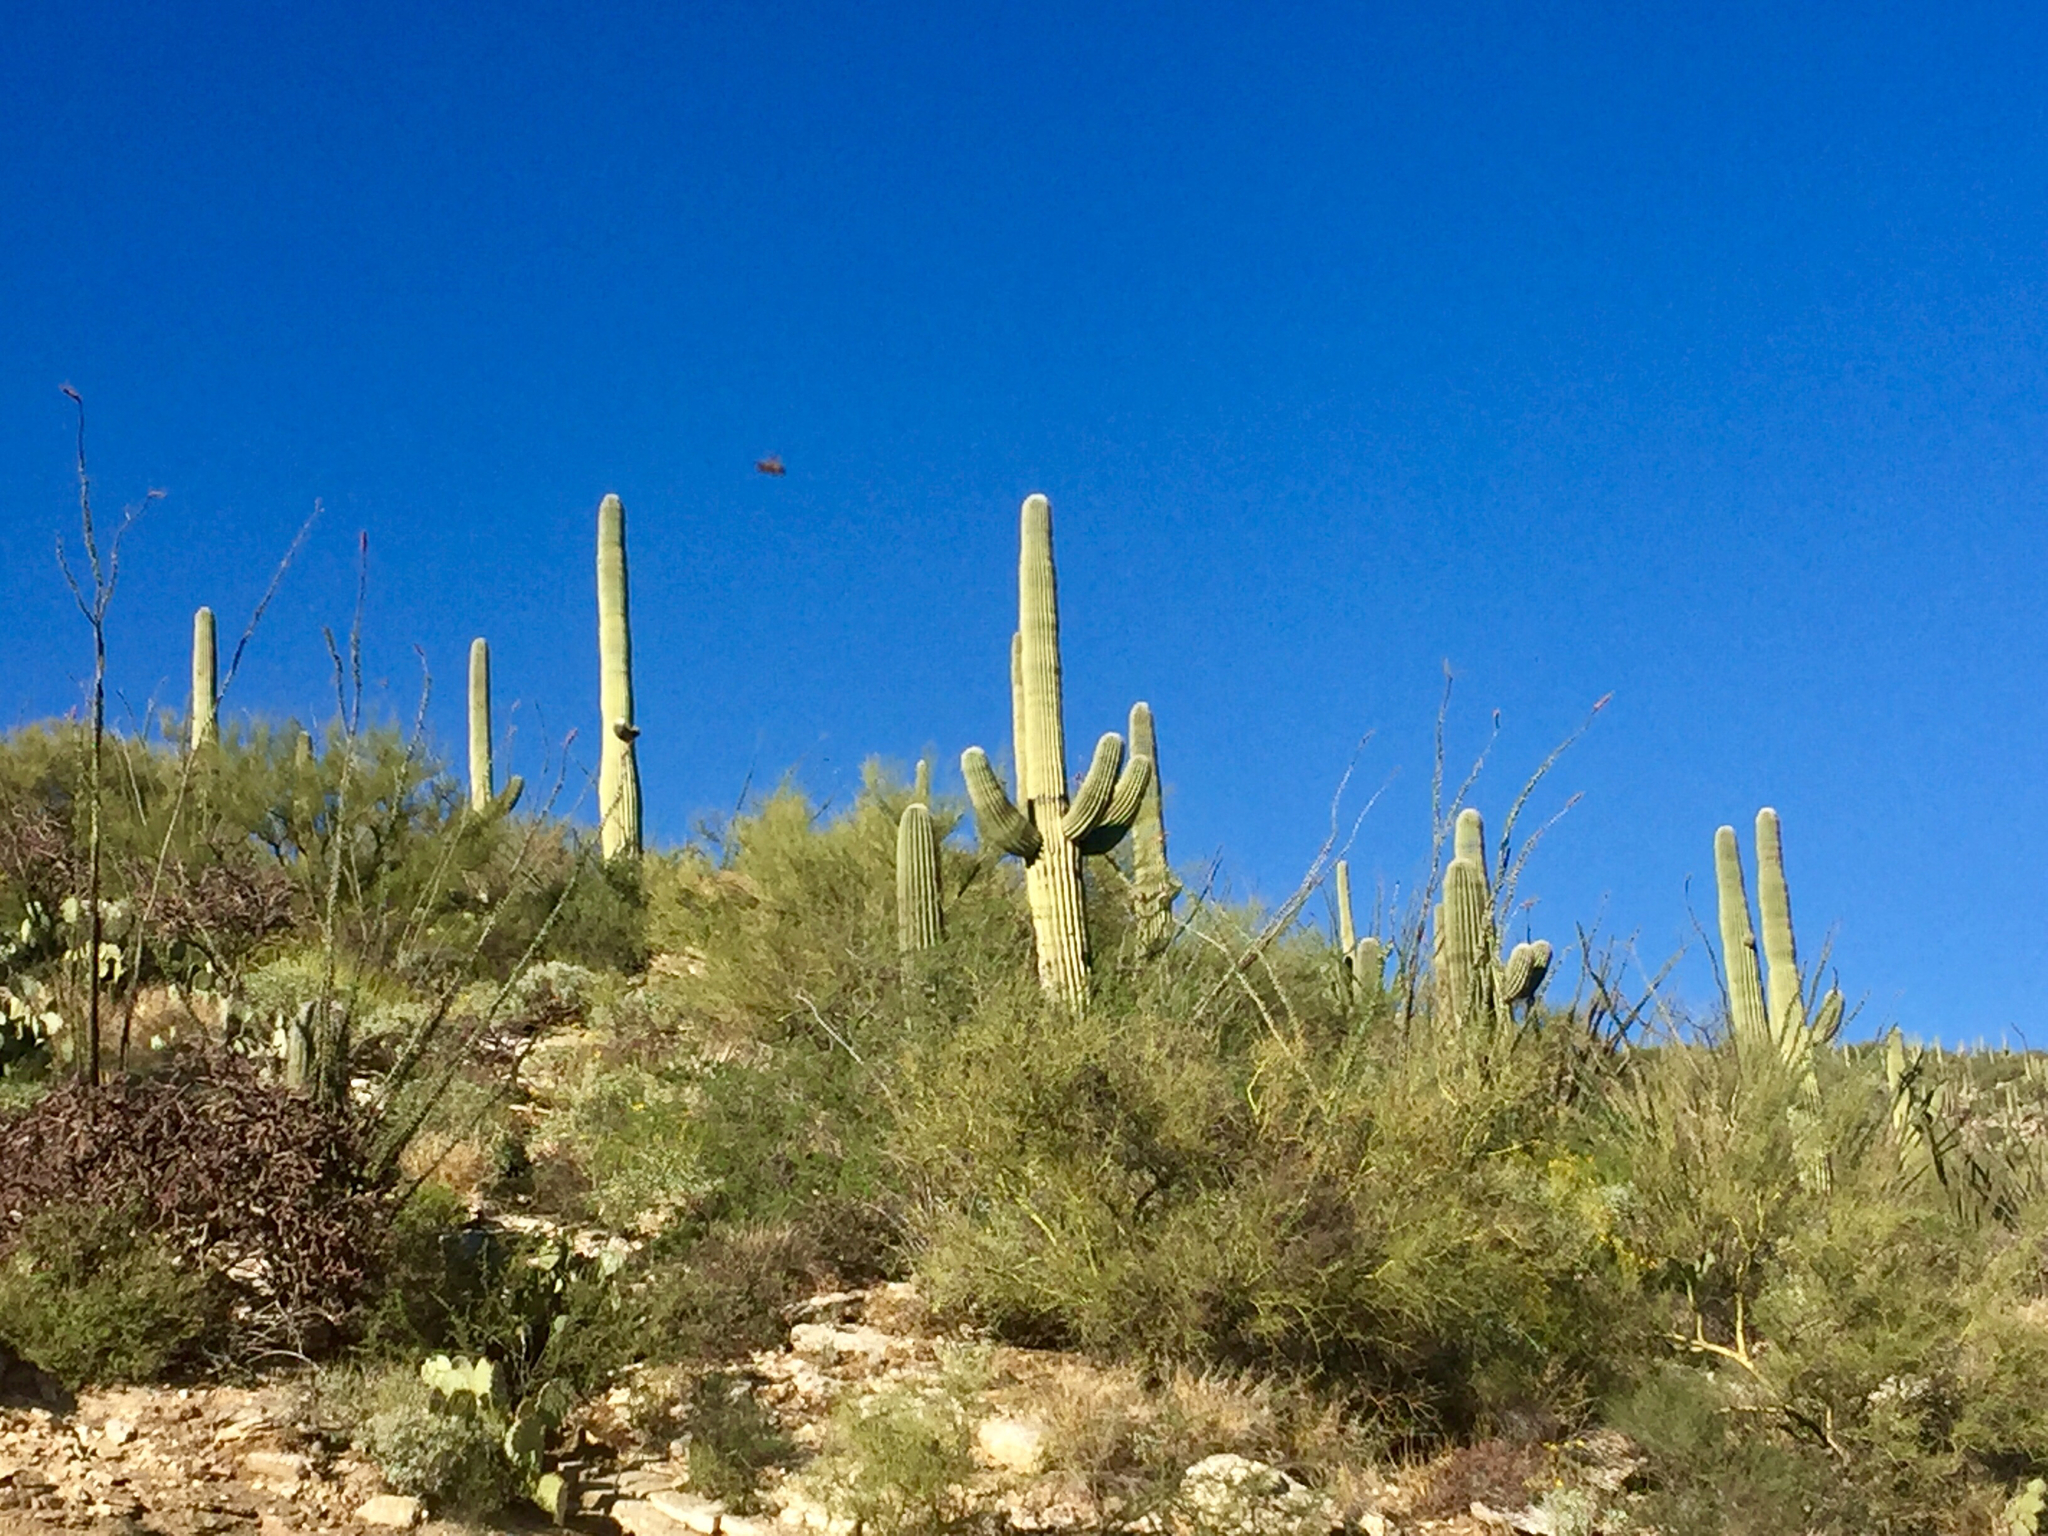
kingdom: Plantae
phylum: Tracheophyta
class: Magnoliopsida
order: Caryophyllales
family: Cactaceae
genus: Carnegiea
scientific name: Carnegiea gigantea
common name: Saguaro
